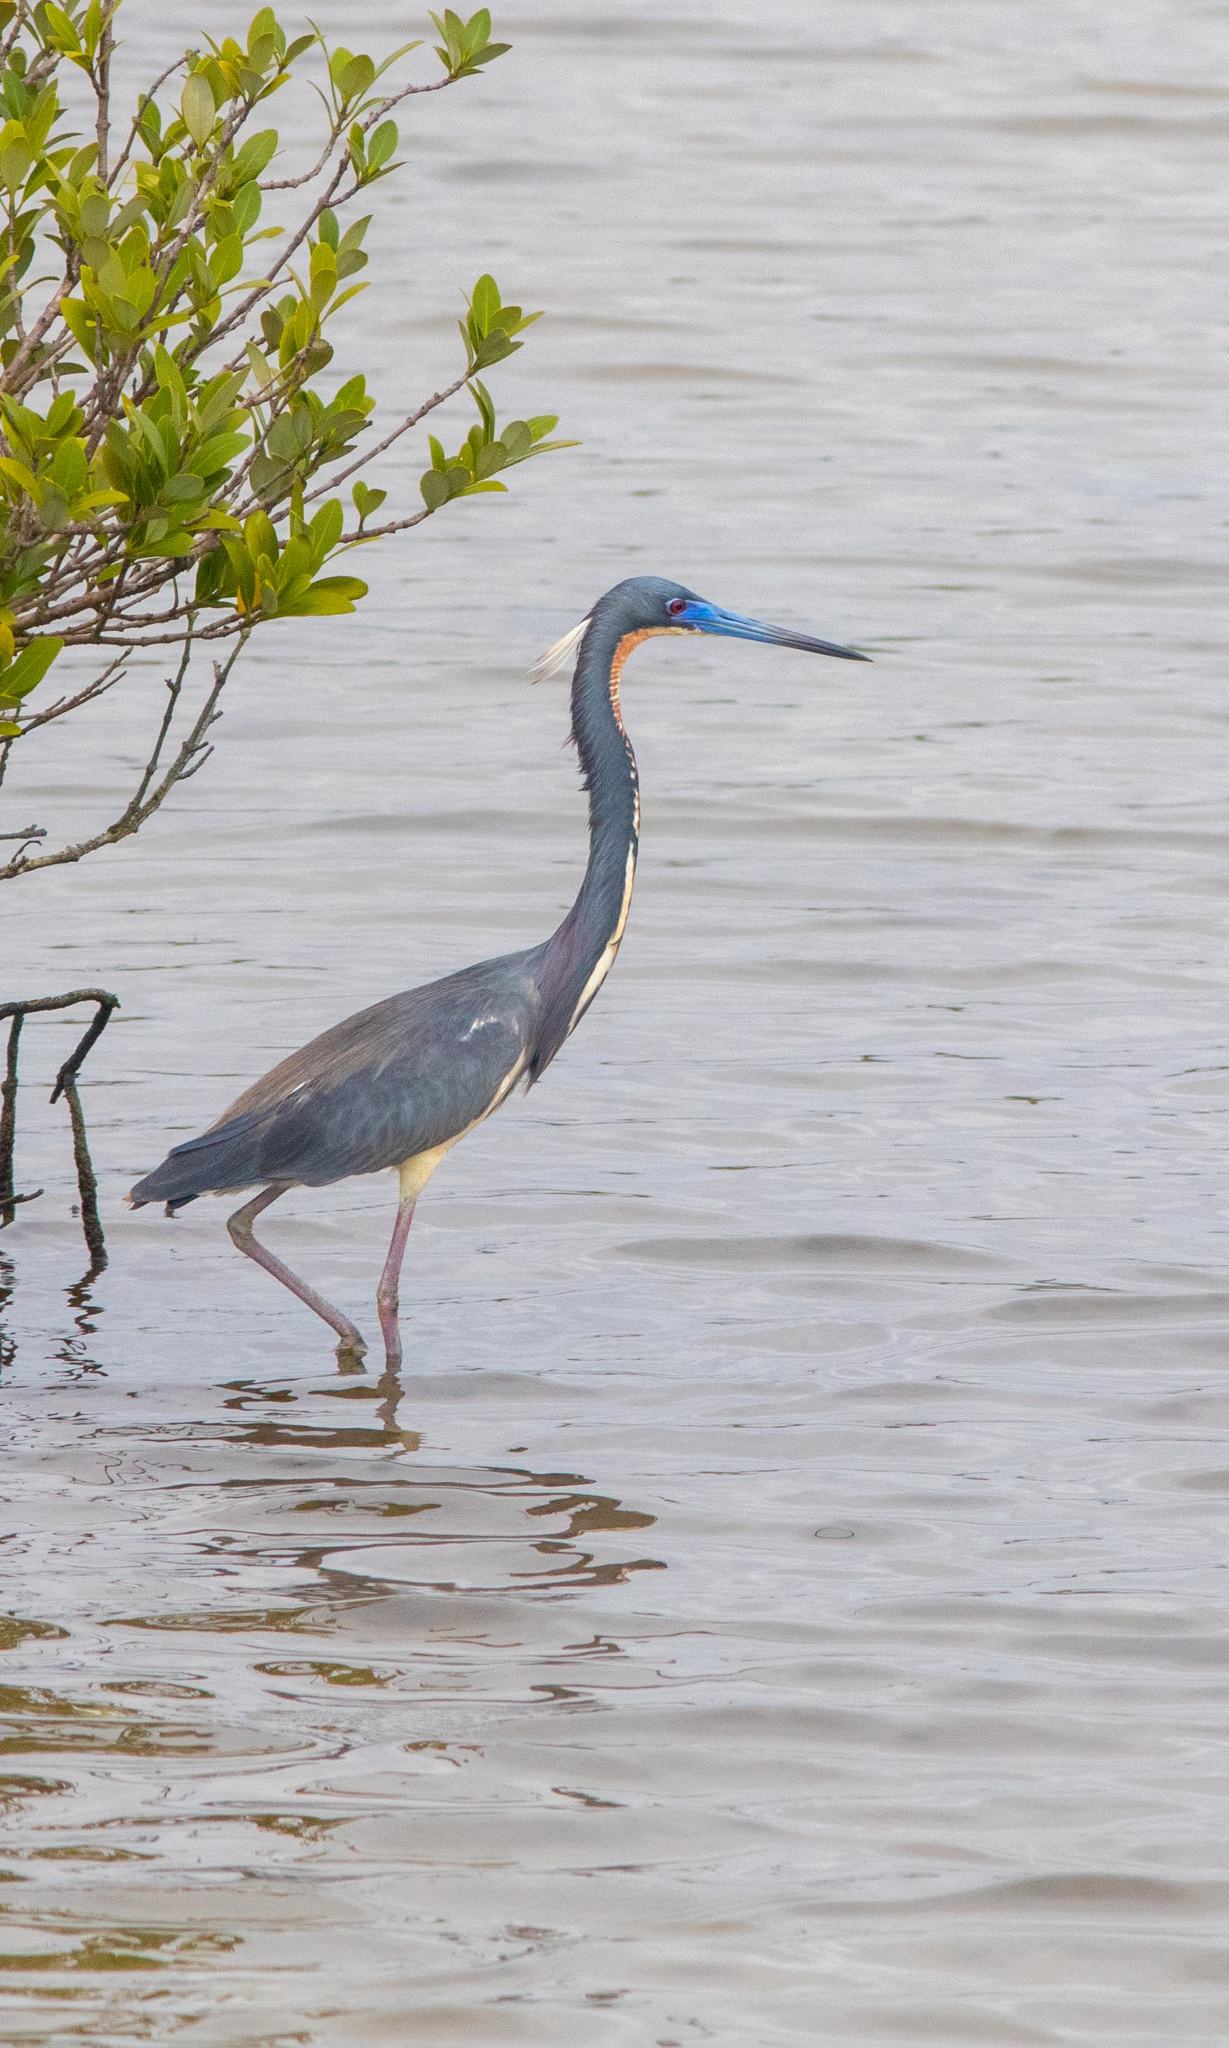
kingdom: Animalia
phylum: Chordata
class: Aves
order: Pelecaniformes
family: Ardeidae
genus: Egretta
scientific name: Egretta tricolor
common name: Tricolored heron
